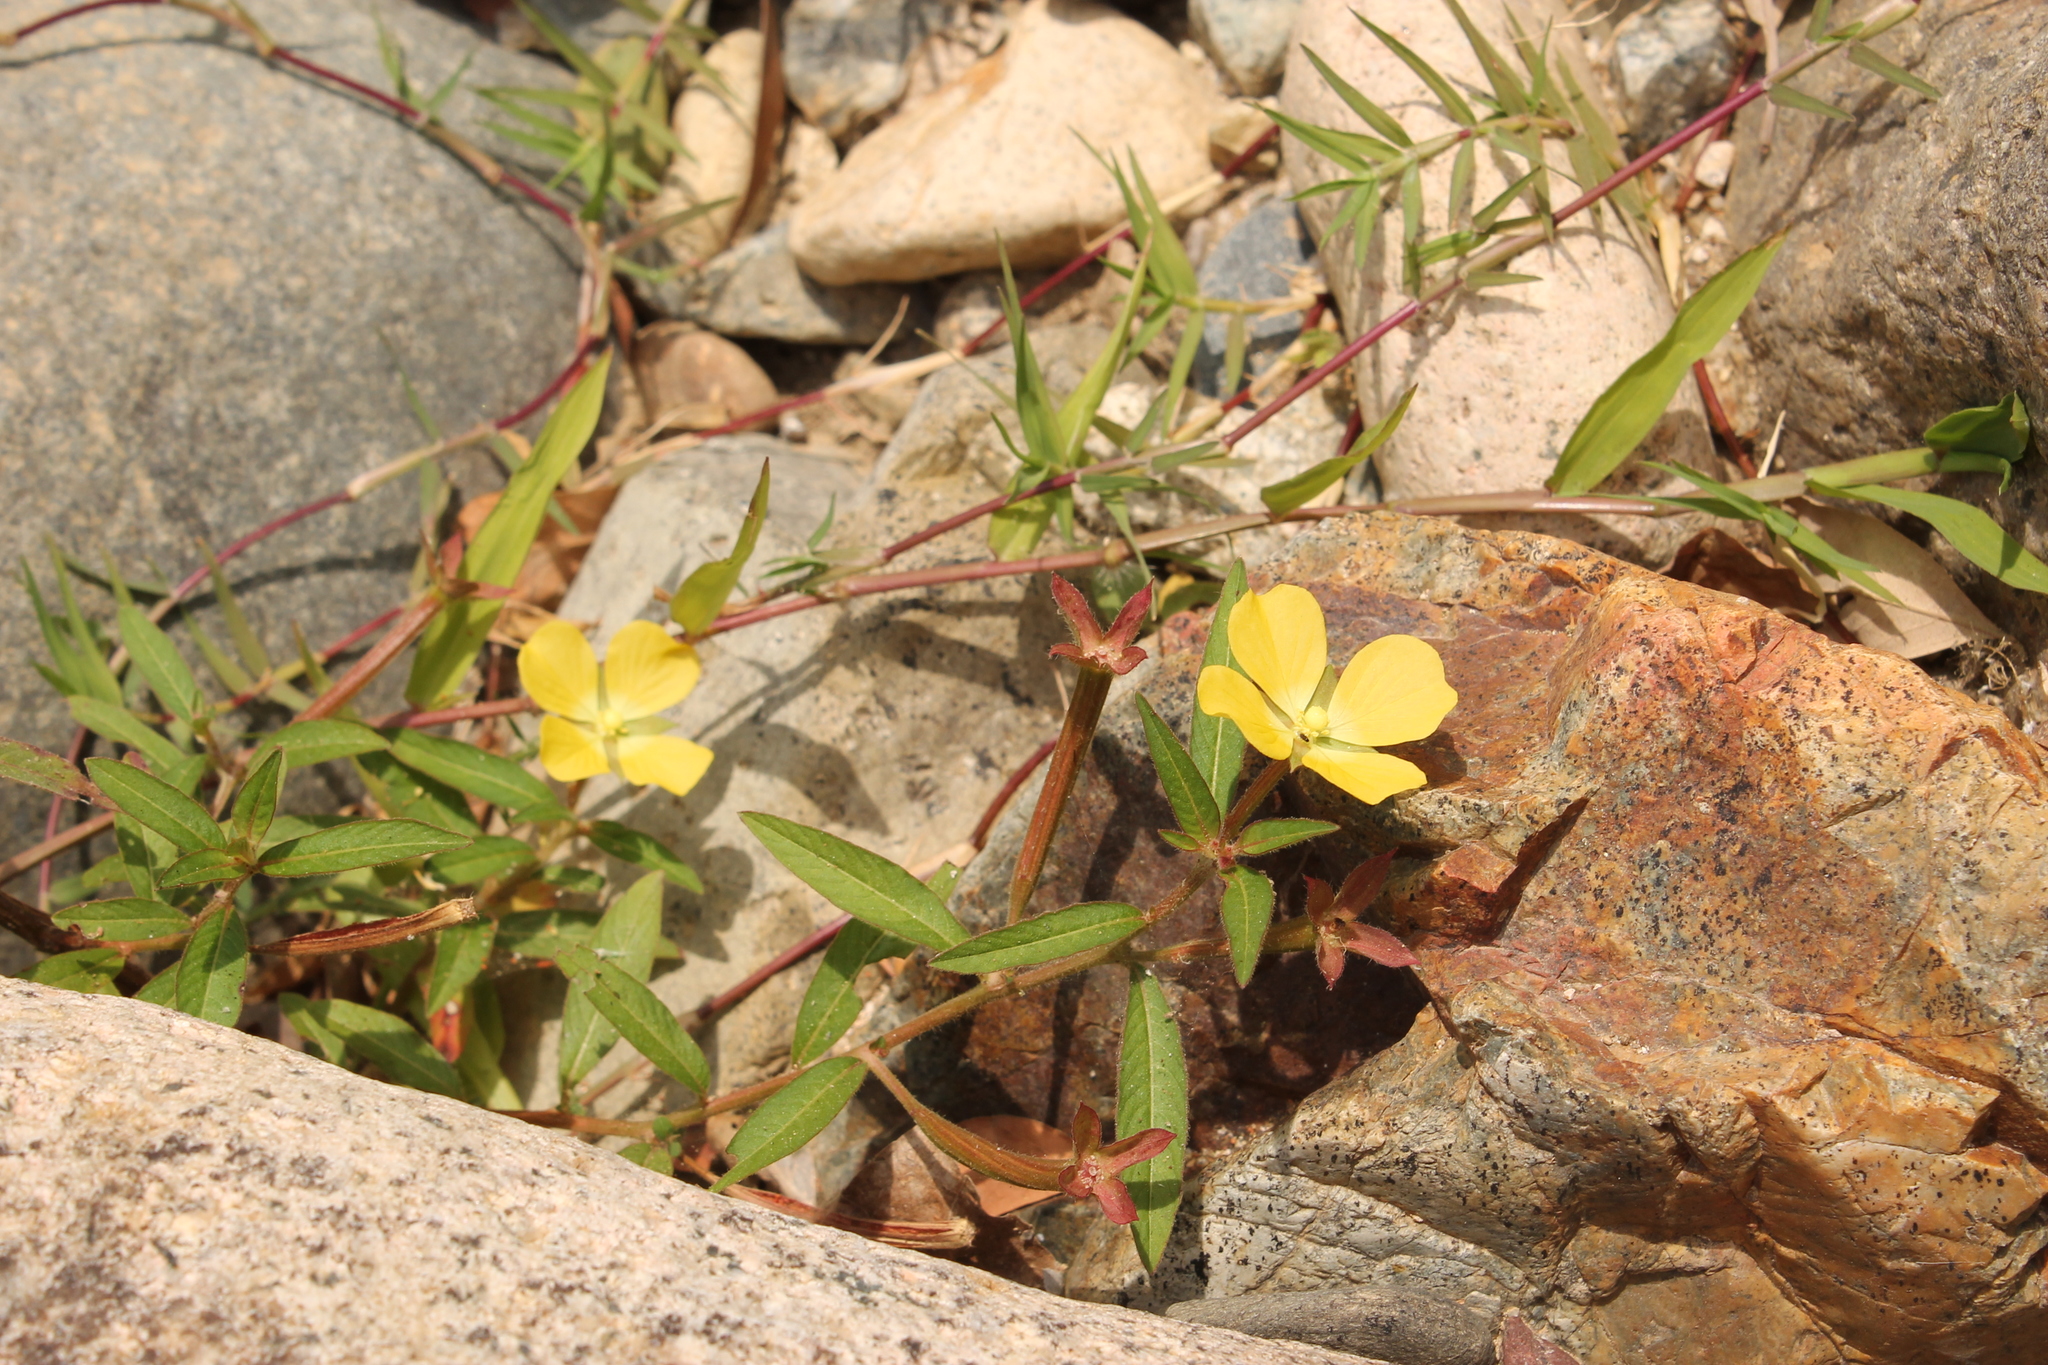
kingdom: Plantae
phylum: Tracheophyta
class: Magnoliopsida
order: Myrtales
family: Onagraceae
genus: Ludwigia
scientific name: Ludwigia octovalvis
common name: Water-primrose
